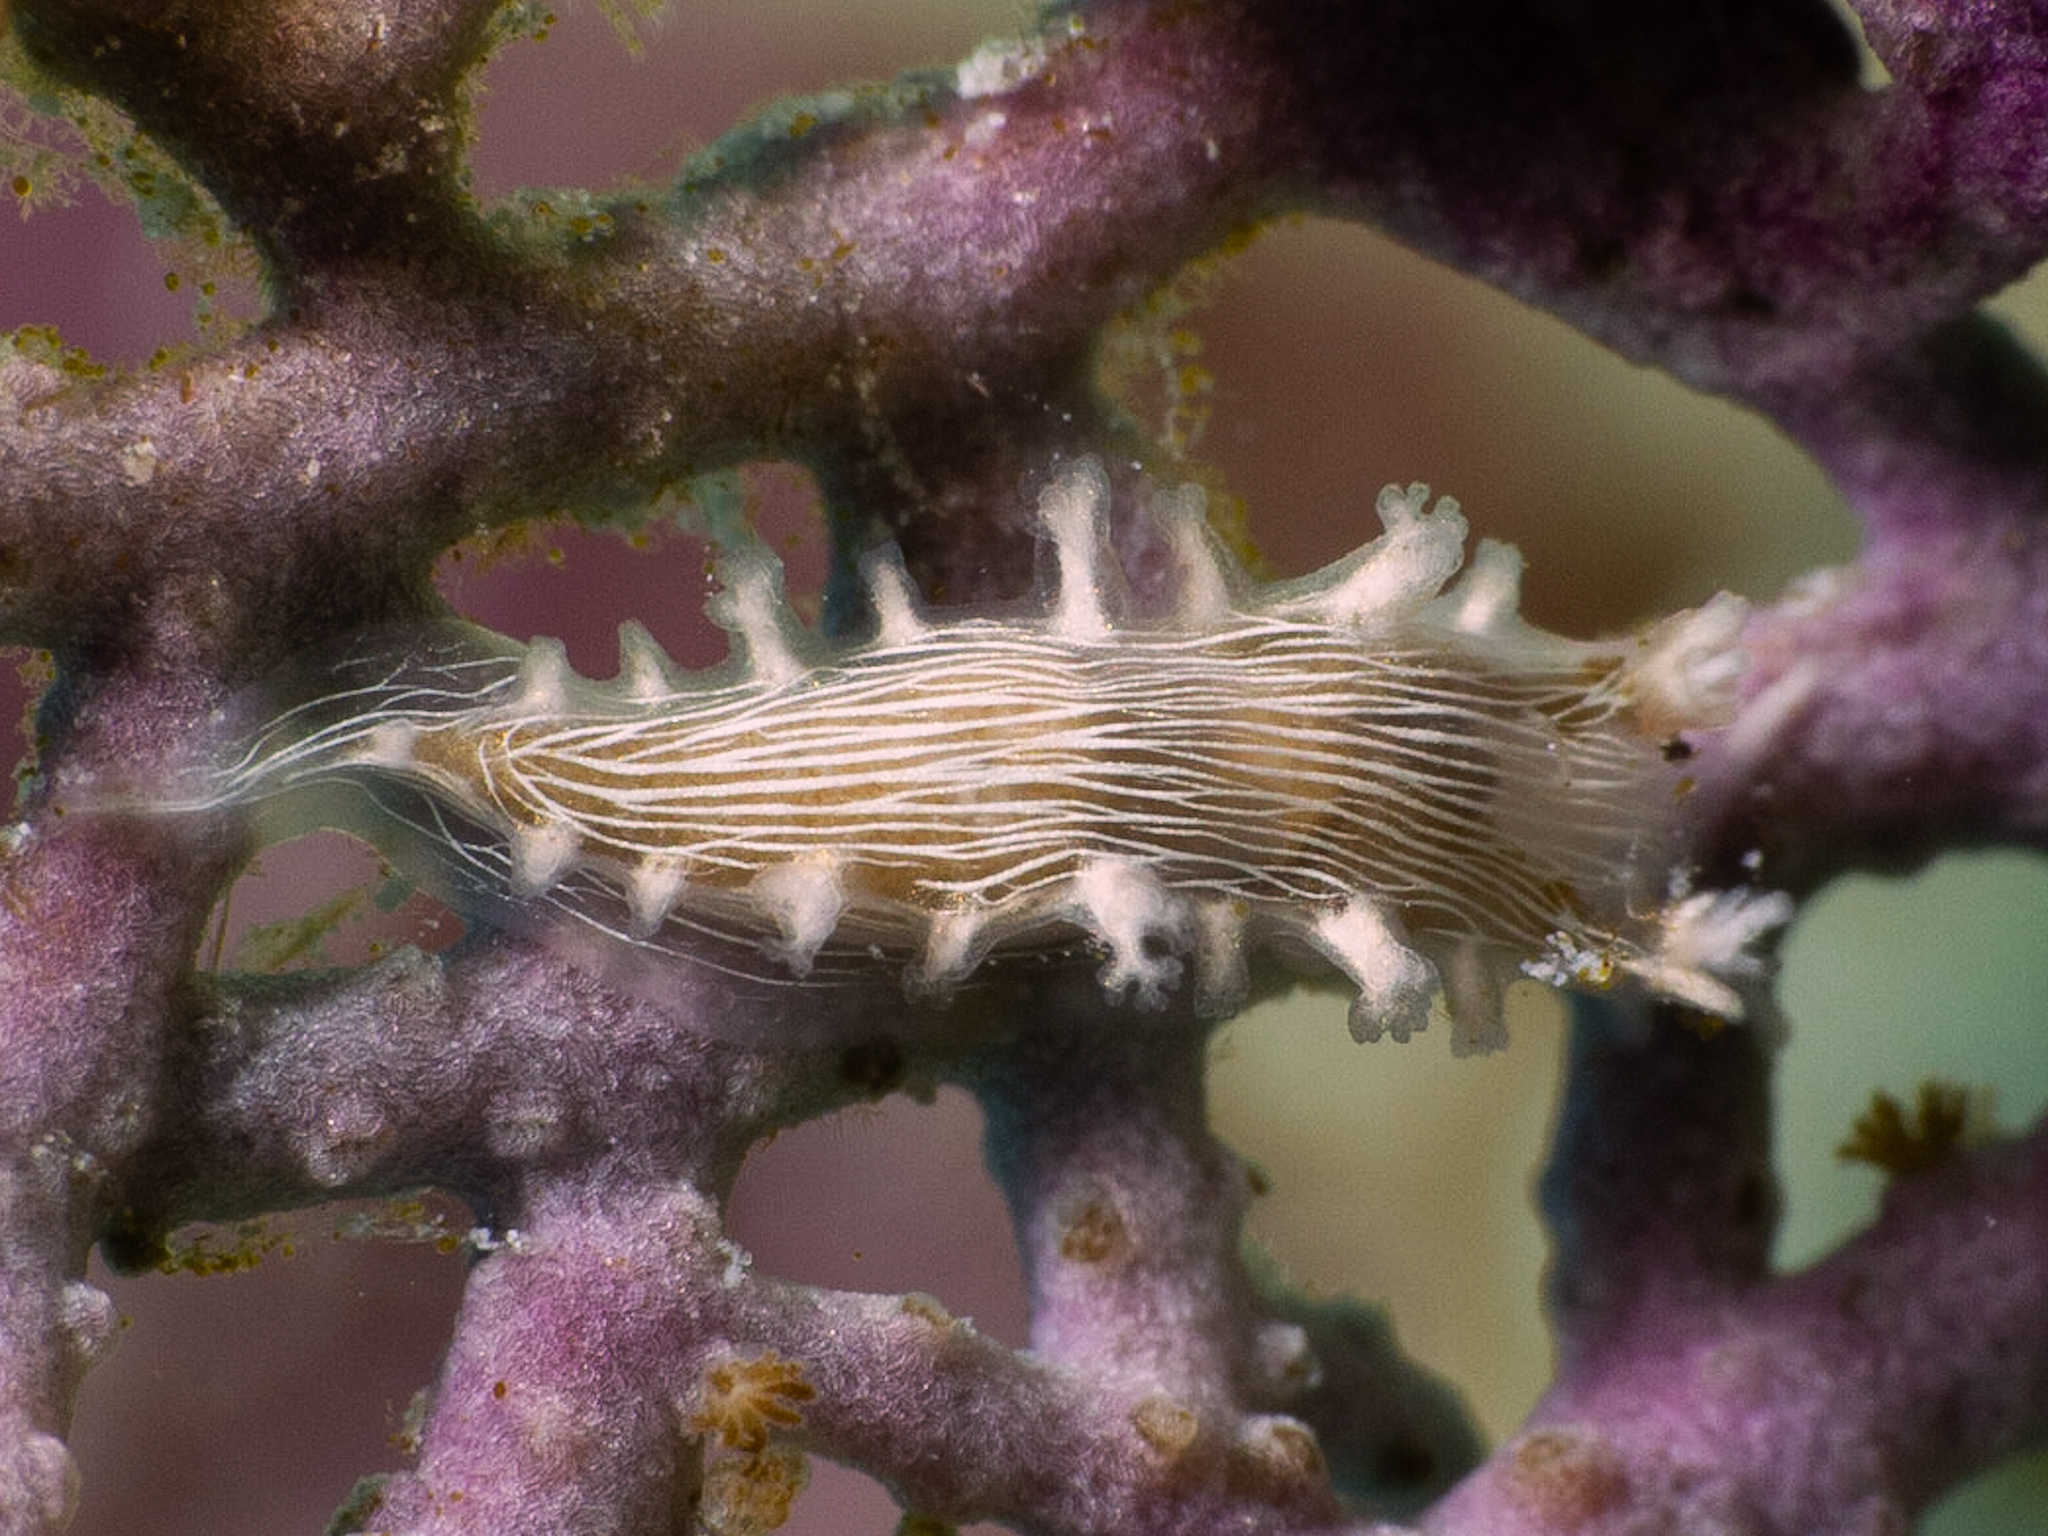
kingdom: Animalia
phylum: Mollusca
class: Gastropoda
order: Nudibranchia
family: Tritoniidae
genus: Tritonicula
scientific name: Tritonicula hamnerorum
